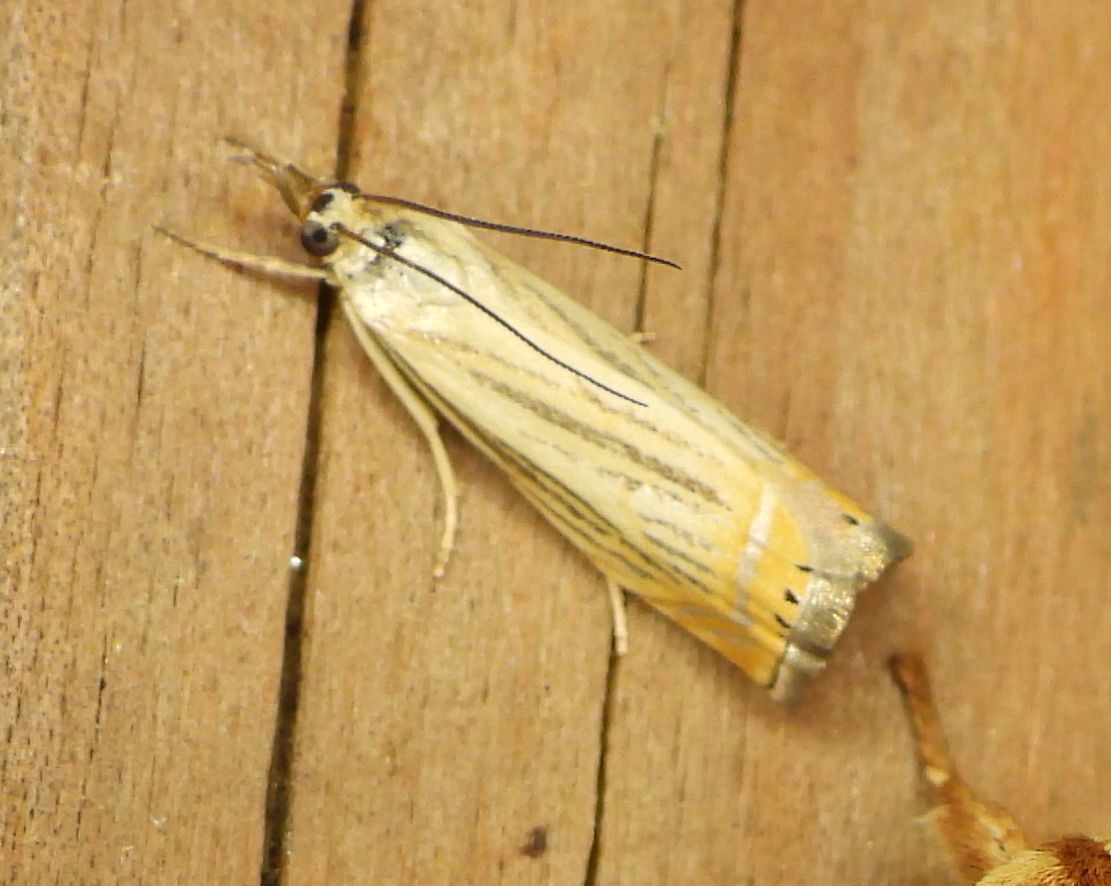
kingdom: Animalia
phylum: Arthropoda
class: Insecta
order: Lepidoptera
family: Crambidae
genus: Chrysoteuchia
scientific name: Chrysoteuchia topiarius
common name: Topiary grass-veneer
